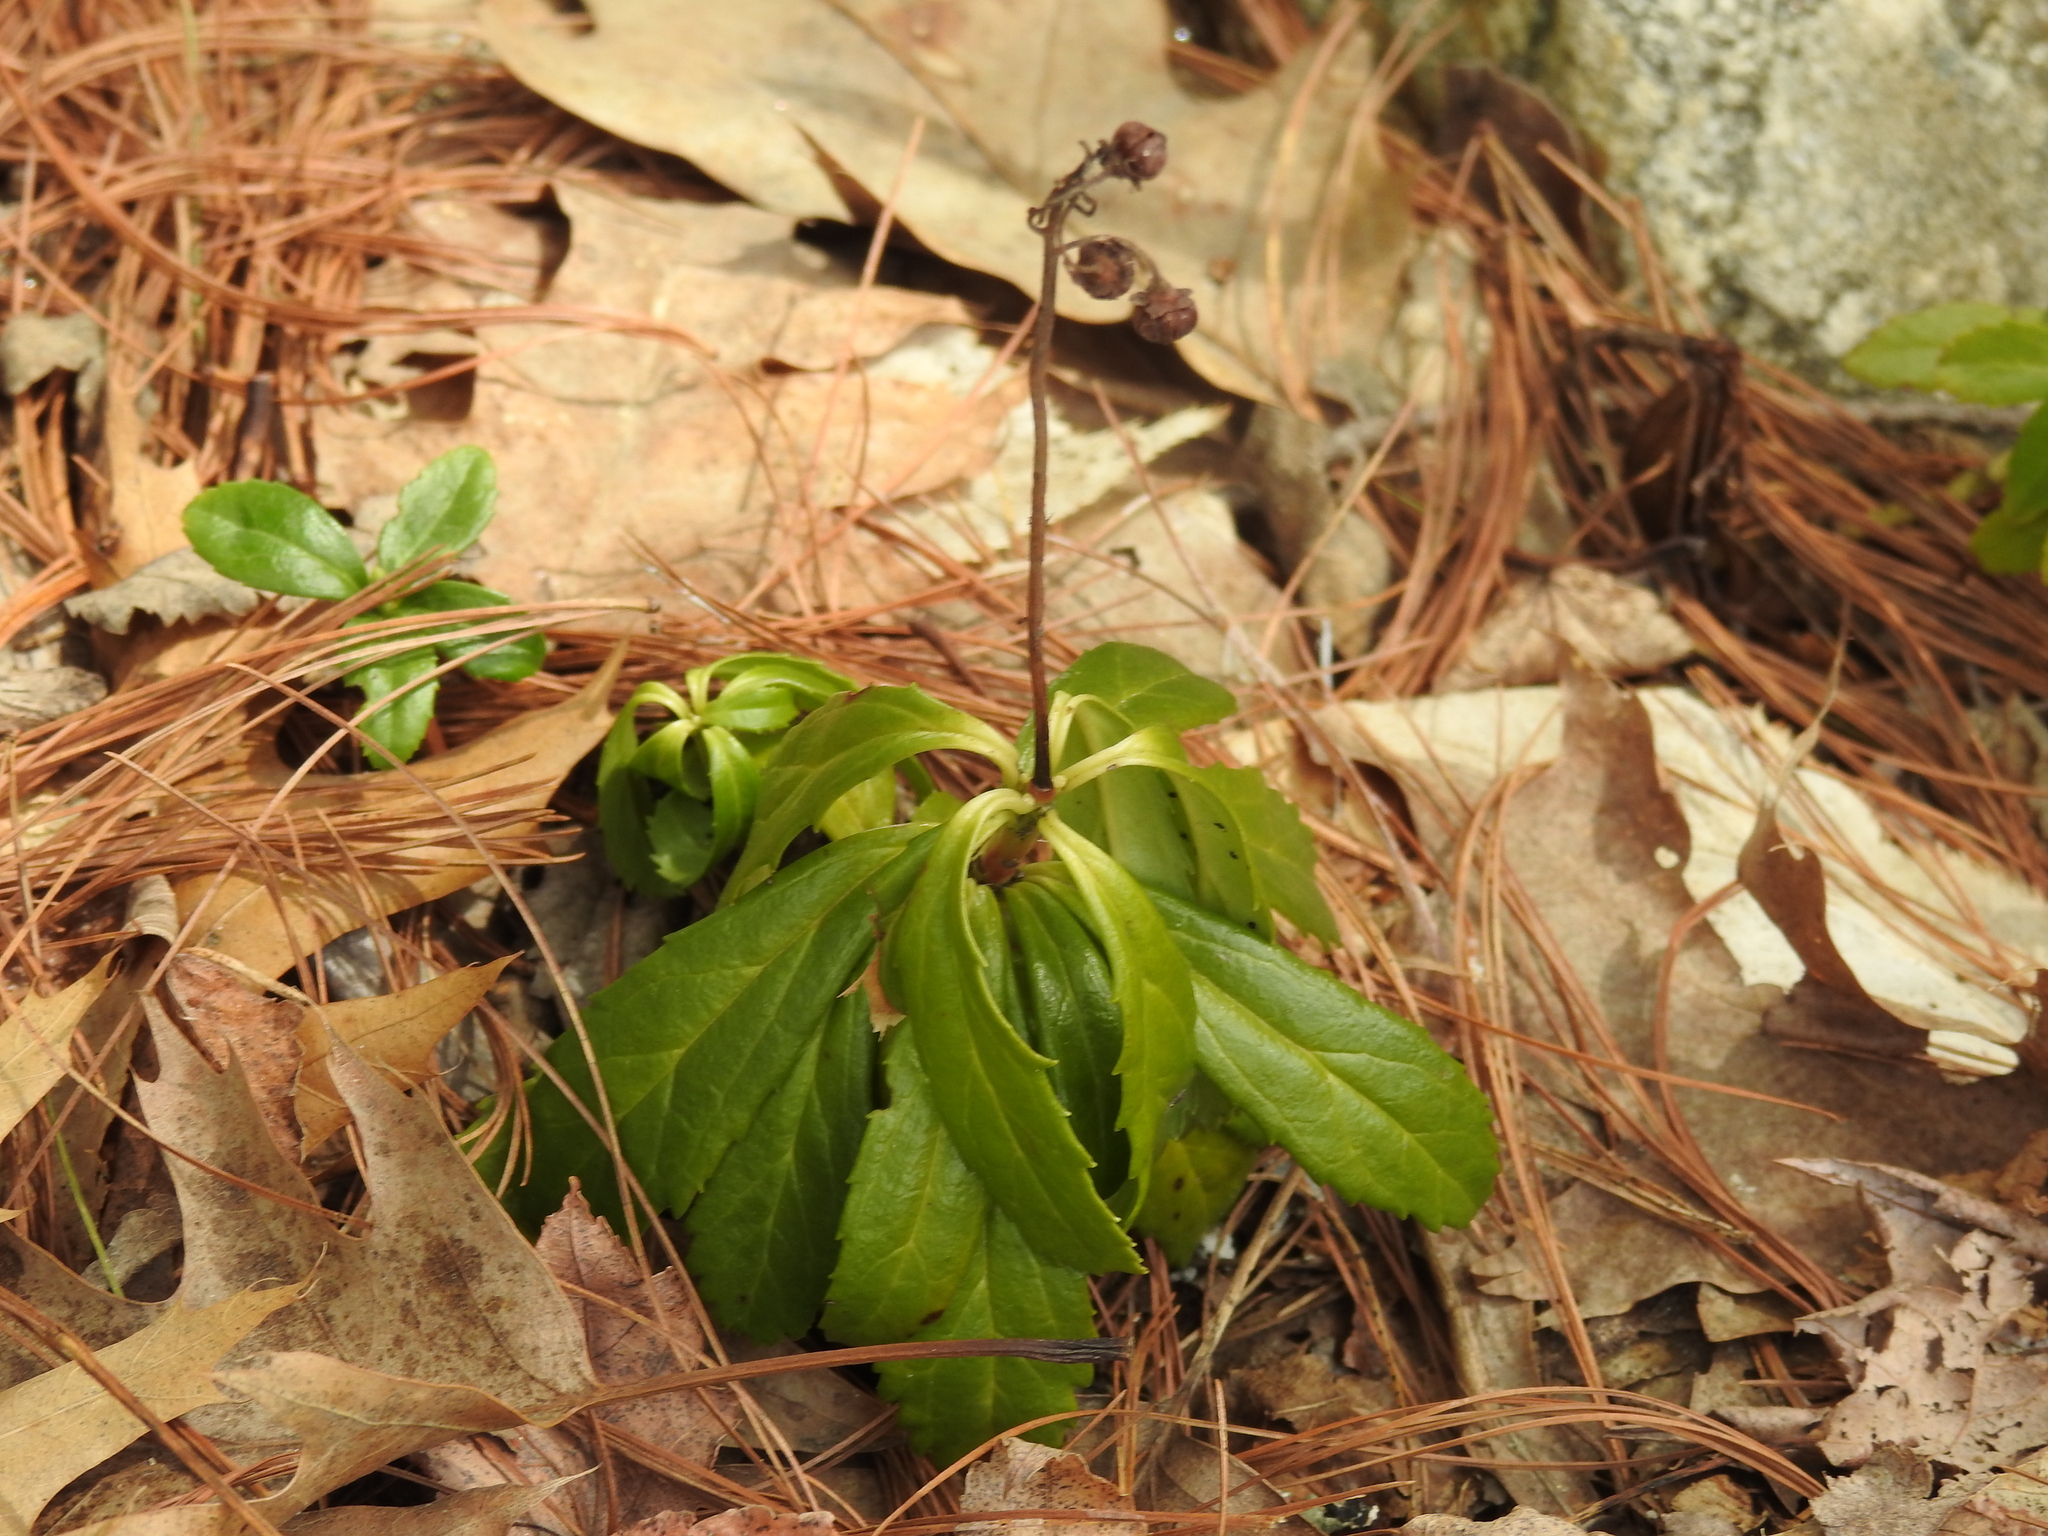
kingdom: Plantae
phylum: Tracheophyta
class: Magnoliopsida
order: Ericales
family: Ericaceae
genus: Chimaphila
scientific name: Chimaphila umbellata
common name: Pipsissewa
